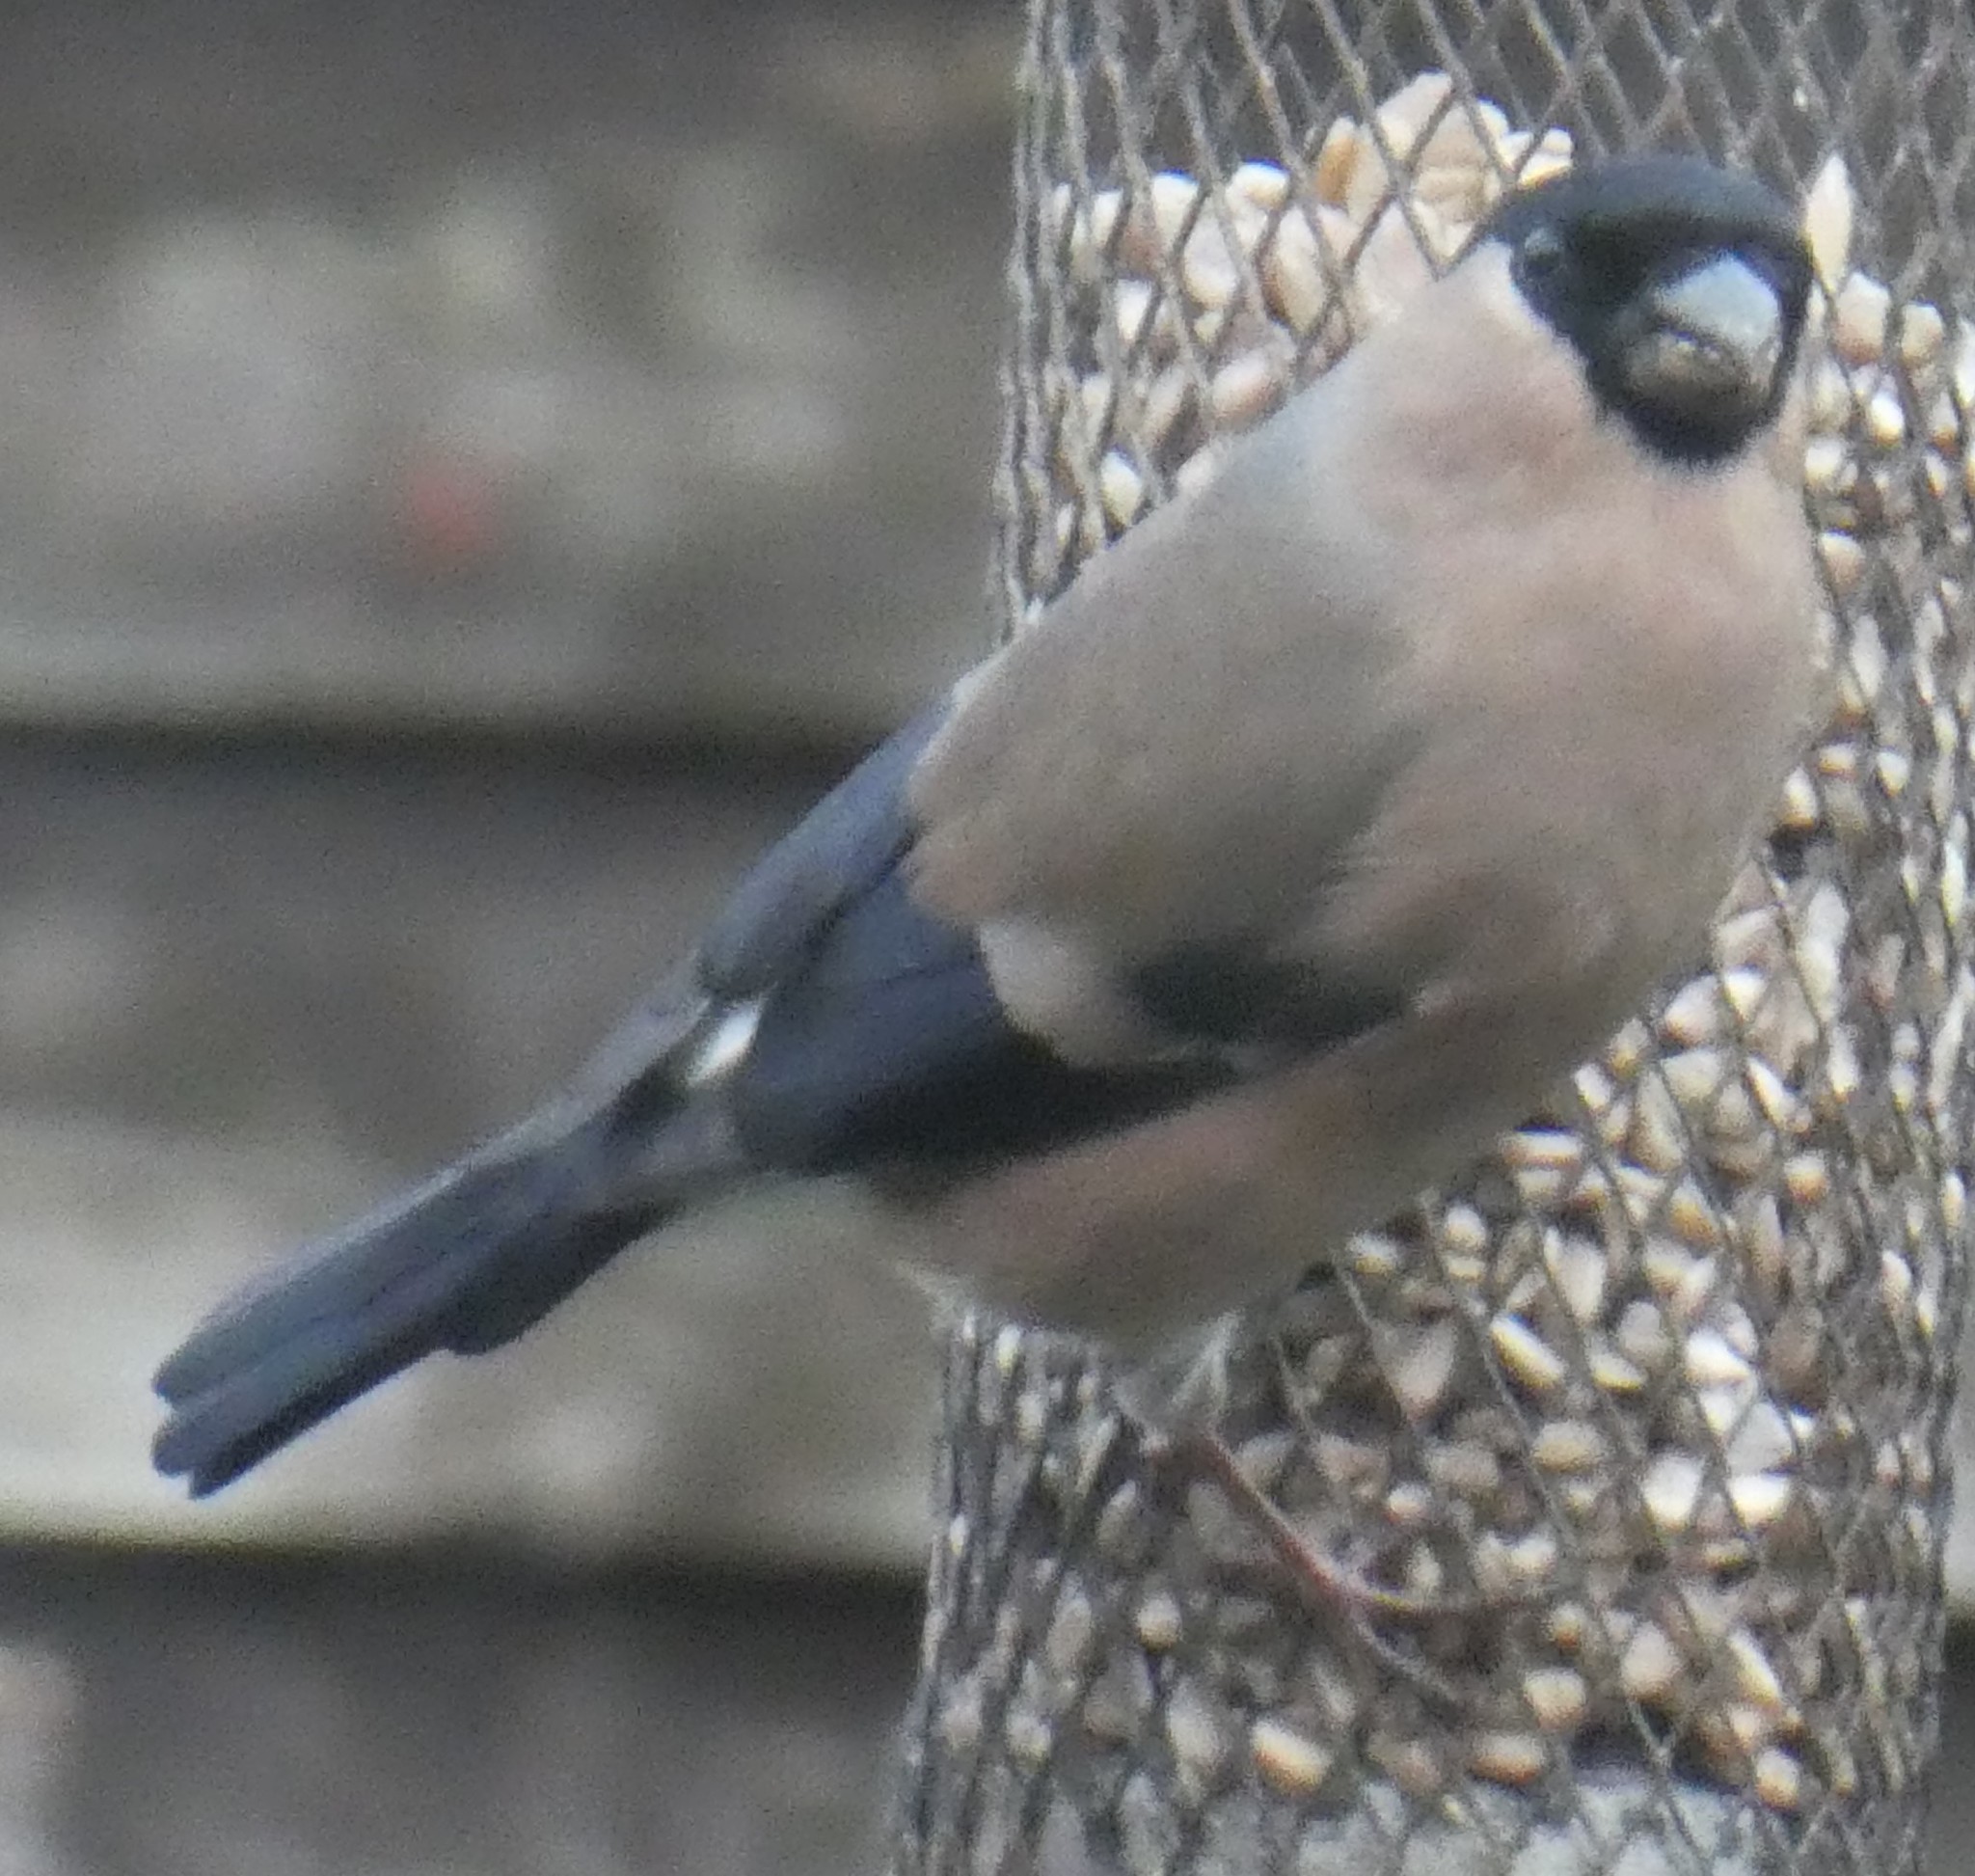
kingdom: Animalia
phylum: Chordata
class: Aves
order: Passeriformes
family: Fringillidae
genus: Pyrrhula
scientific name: Pyrrhula pyrrhula
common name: Eurasian bullfinch
